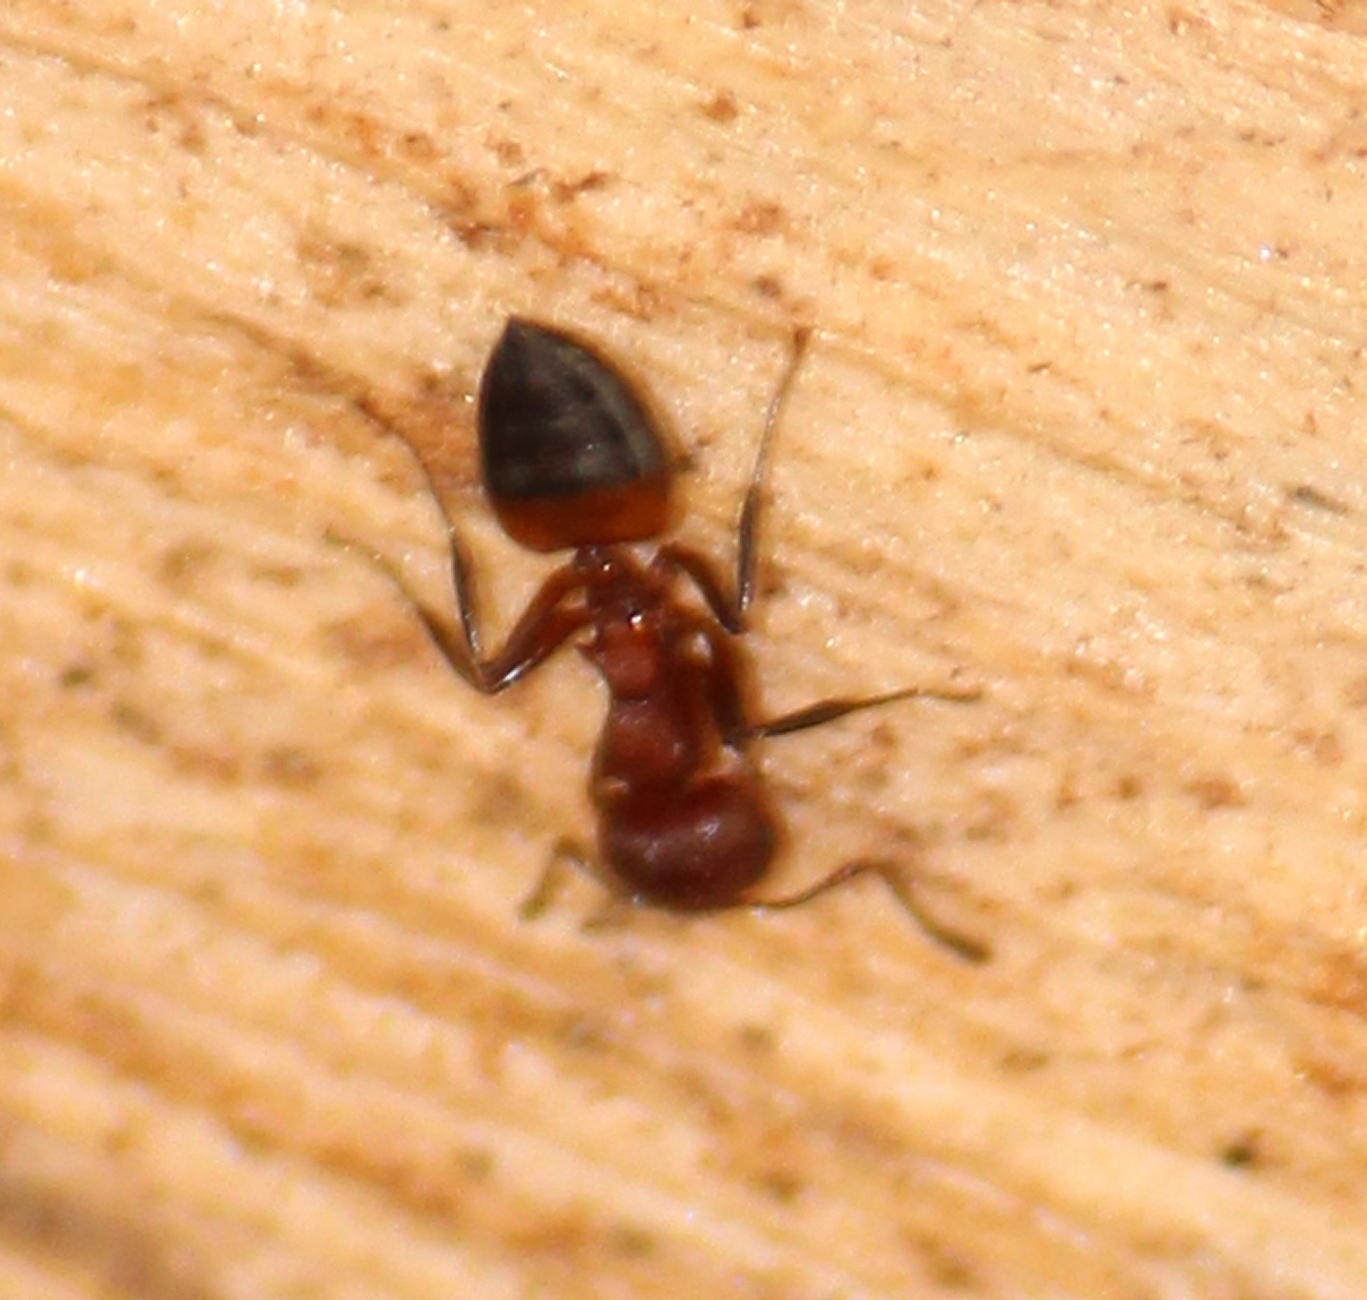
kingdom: Animalia
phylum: Arthropoda
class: Insecta
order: Hymenoptera
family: Formicidae
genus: Crematogaster
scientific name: Crematogaster castanea
